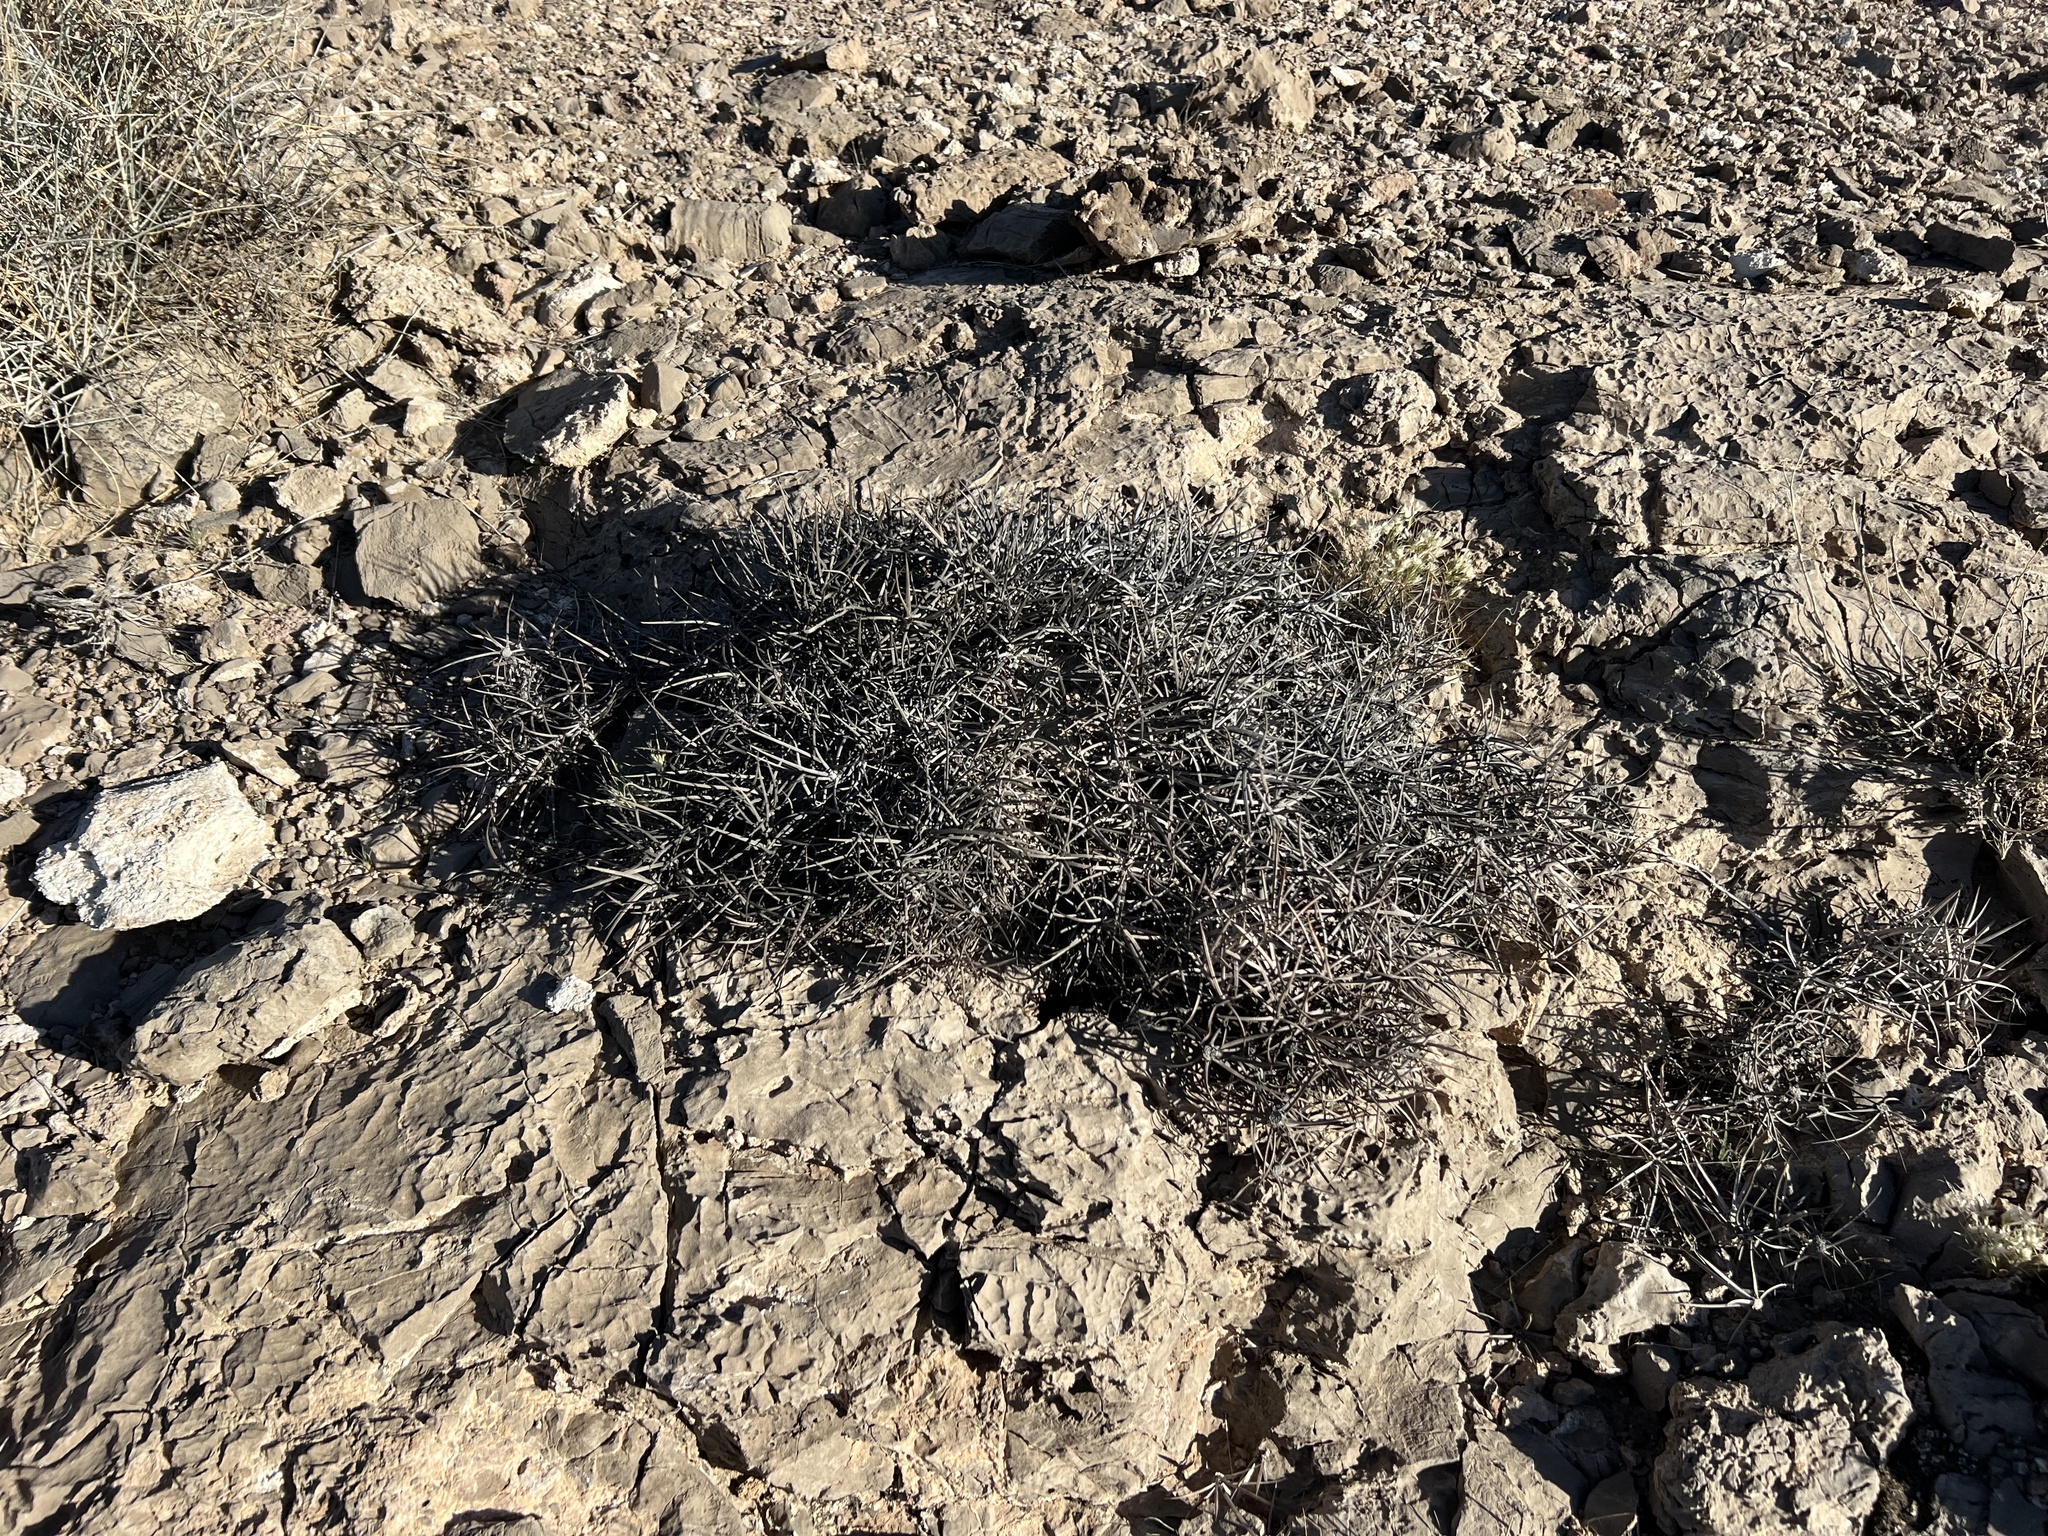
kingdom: Plantae
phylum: Tracheophyta
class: Magnoliopsida
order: Caryophyllales
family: Cactaceae
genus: Echinocactus
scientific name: Echinocactus polycephalus
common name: Cottontop cactus
